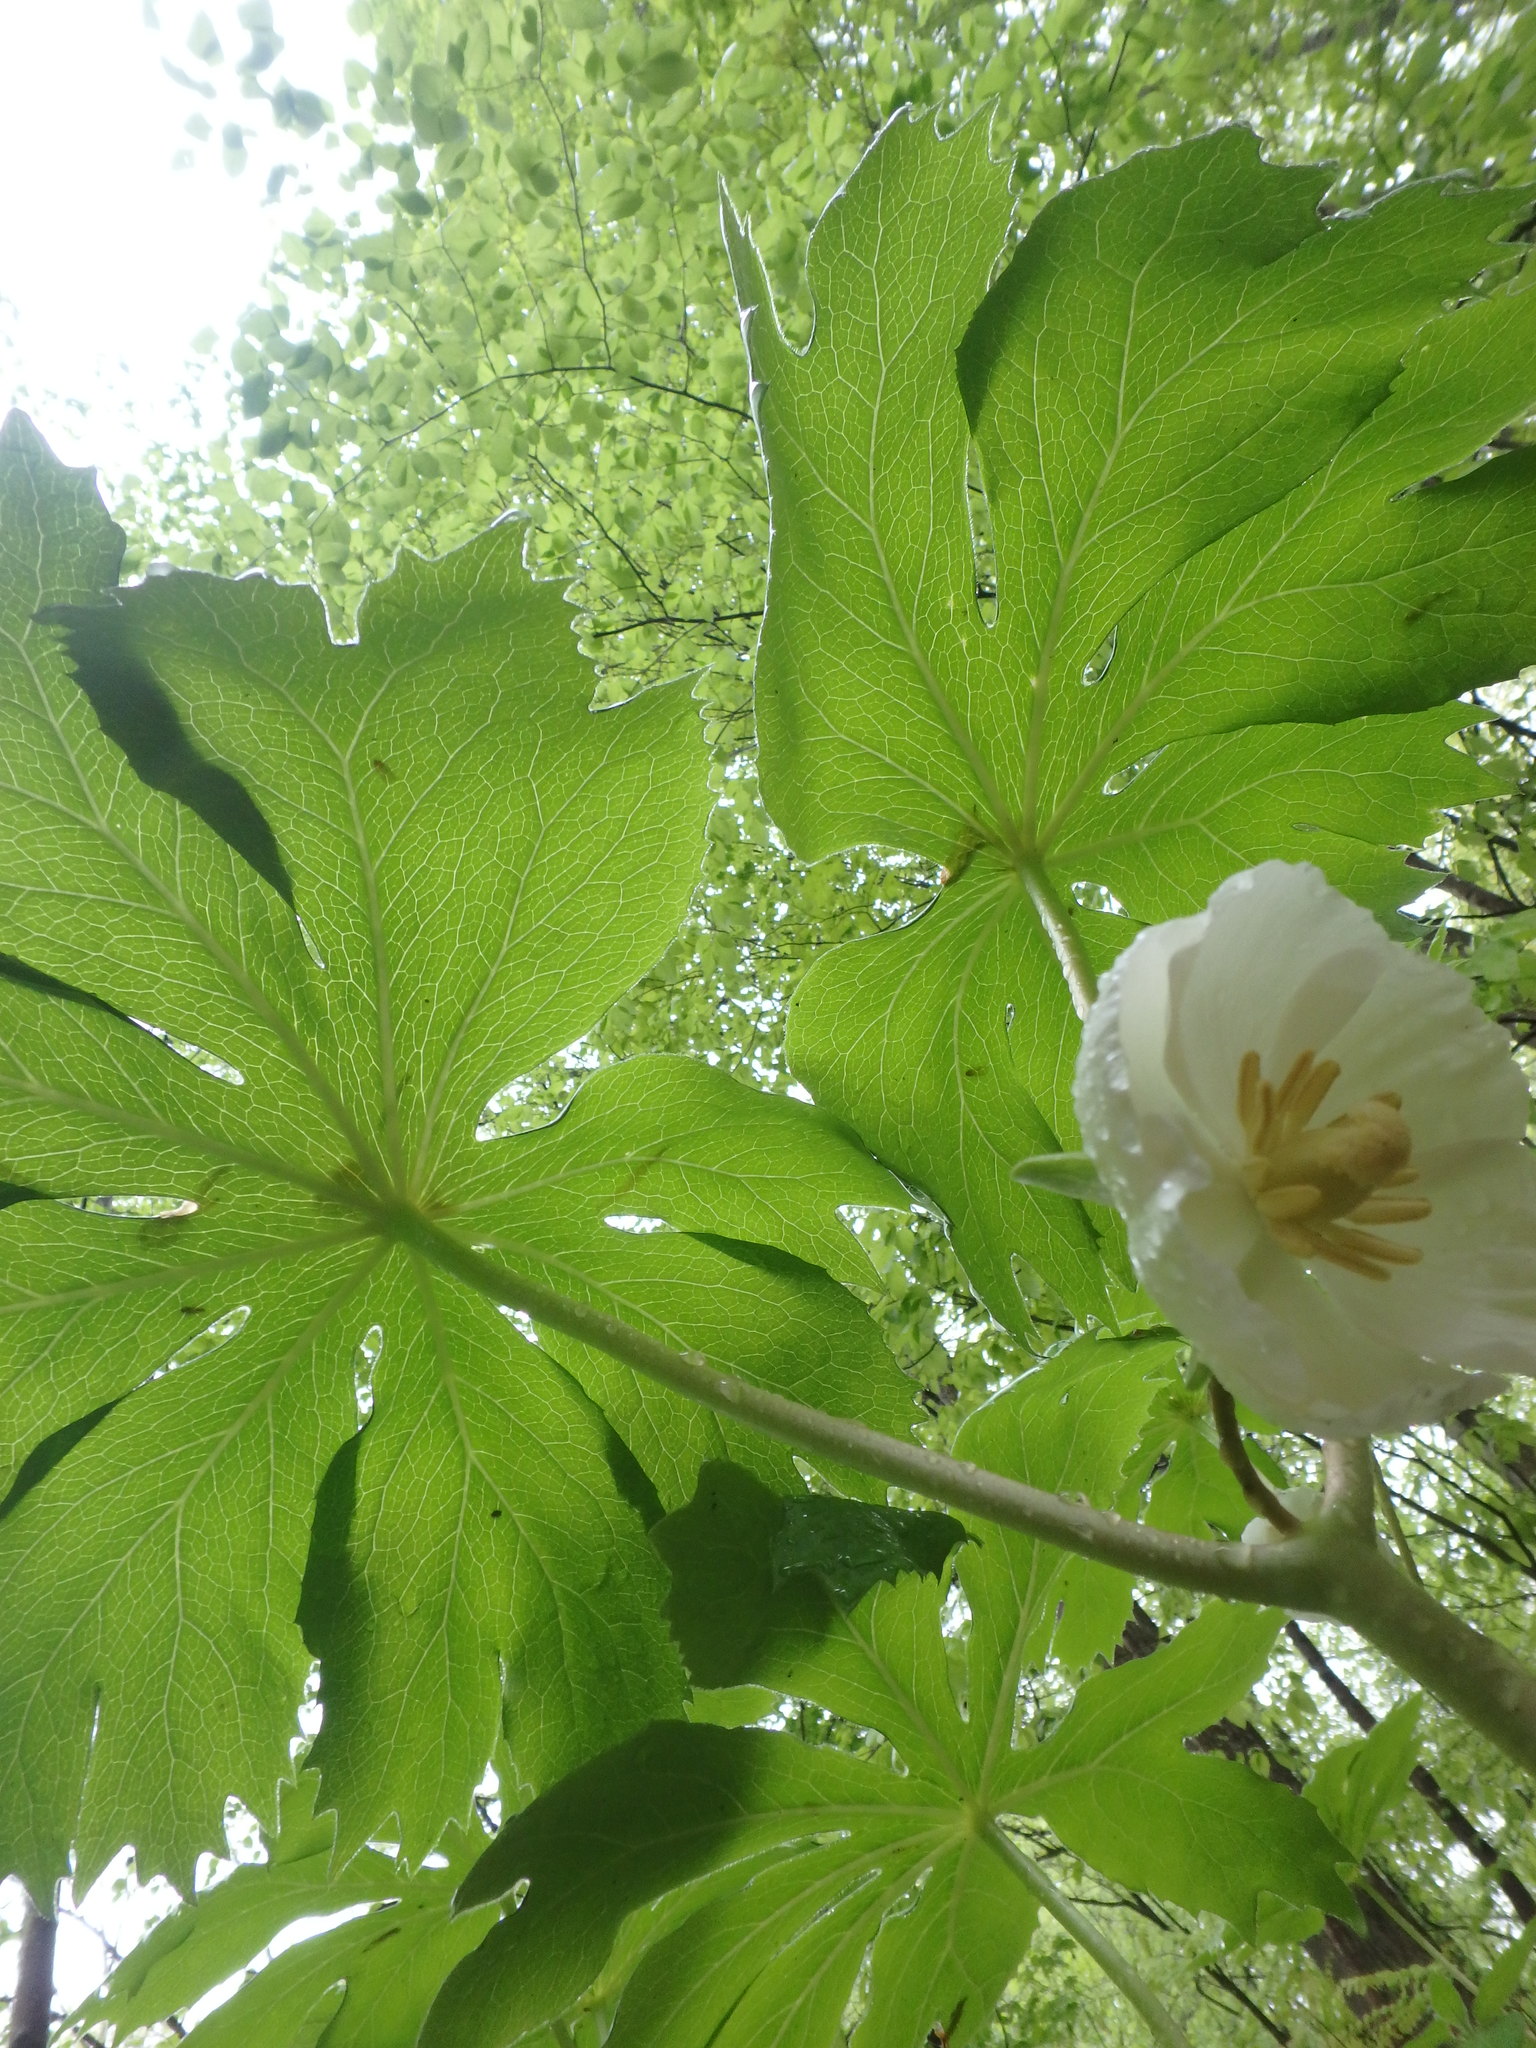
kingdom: Plantae
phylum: Tracheophyta
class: Magnoliopsida
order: Ranunculales
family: Berberidaceae
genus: Podophyllum
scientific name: Podophyllum peltatum
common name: Wild mandrake
